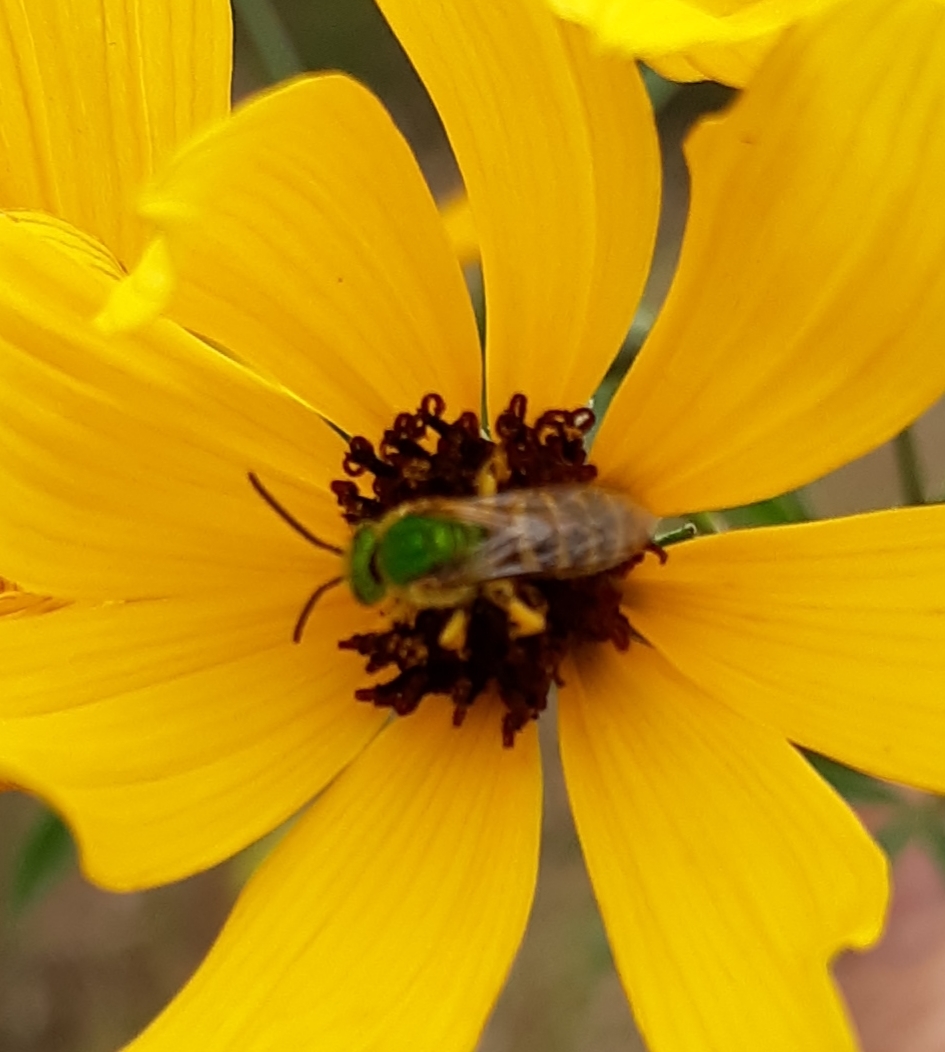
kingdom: Animalia
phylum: Arthropoda
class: Insecta
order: Hymenoptera
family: Halictidae
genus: Agapostemon
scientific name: Agapostemon virescens
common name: Bicolored striped sweat bee
